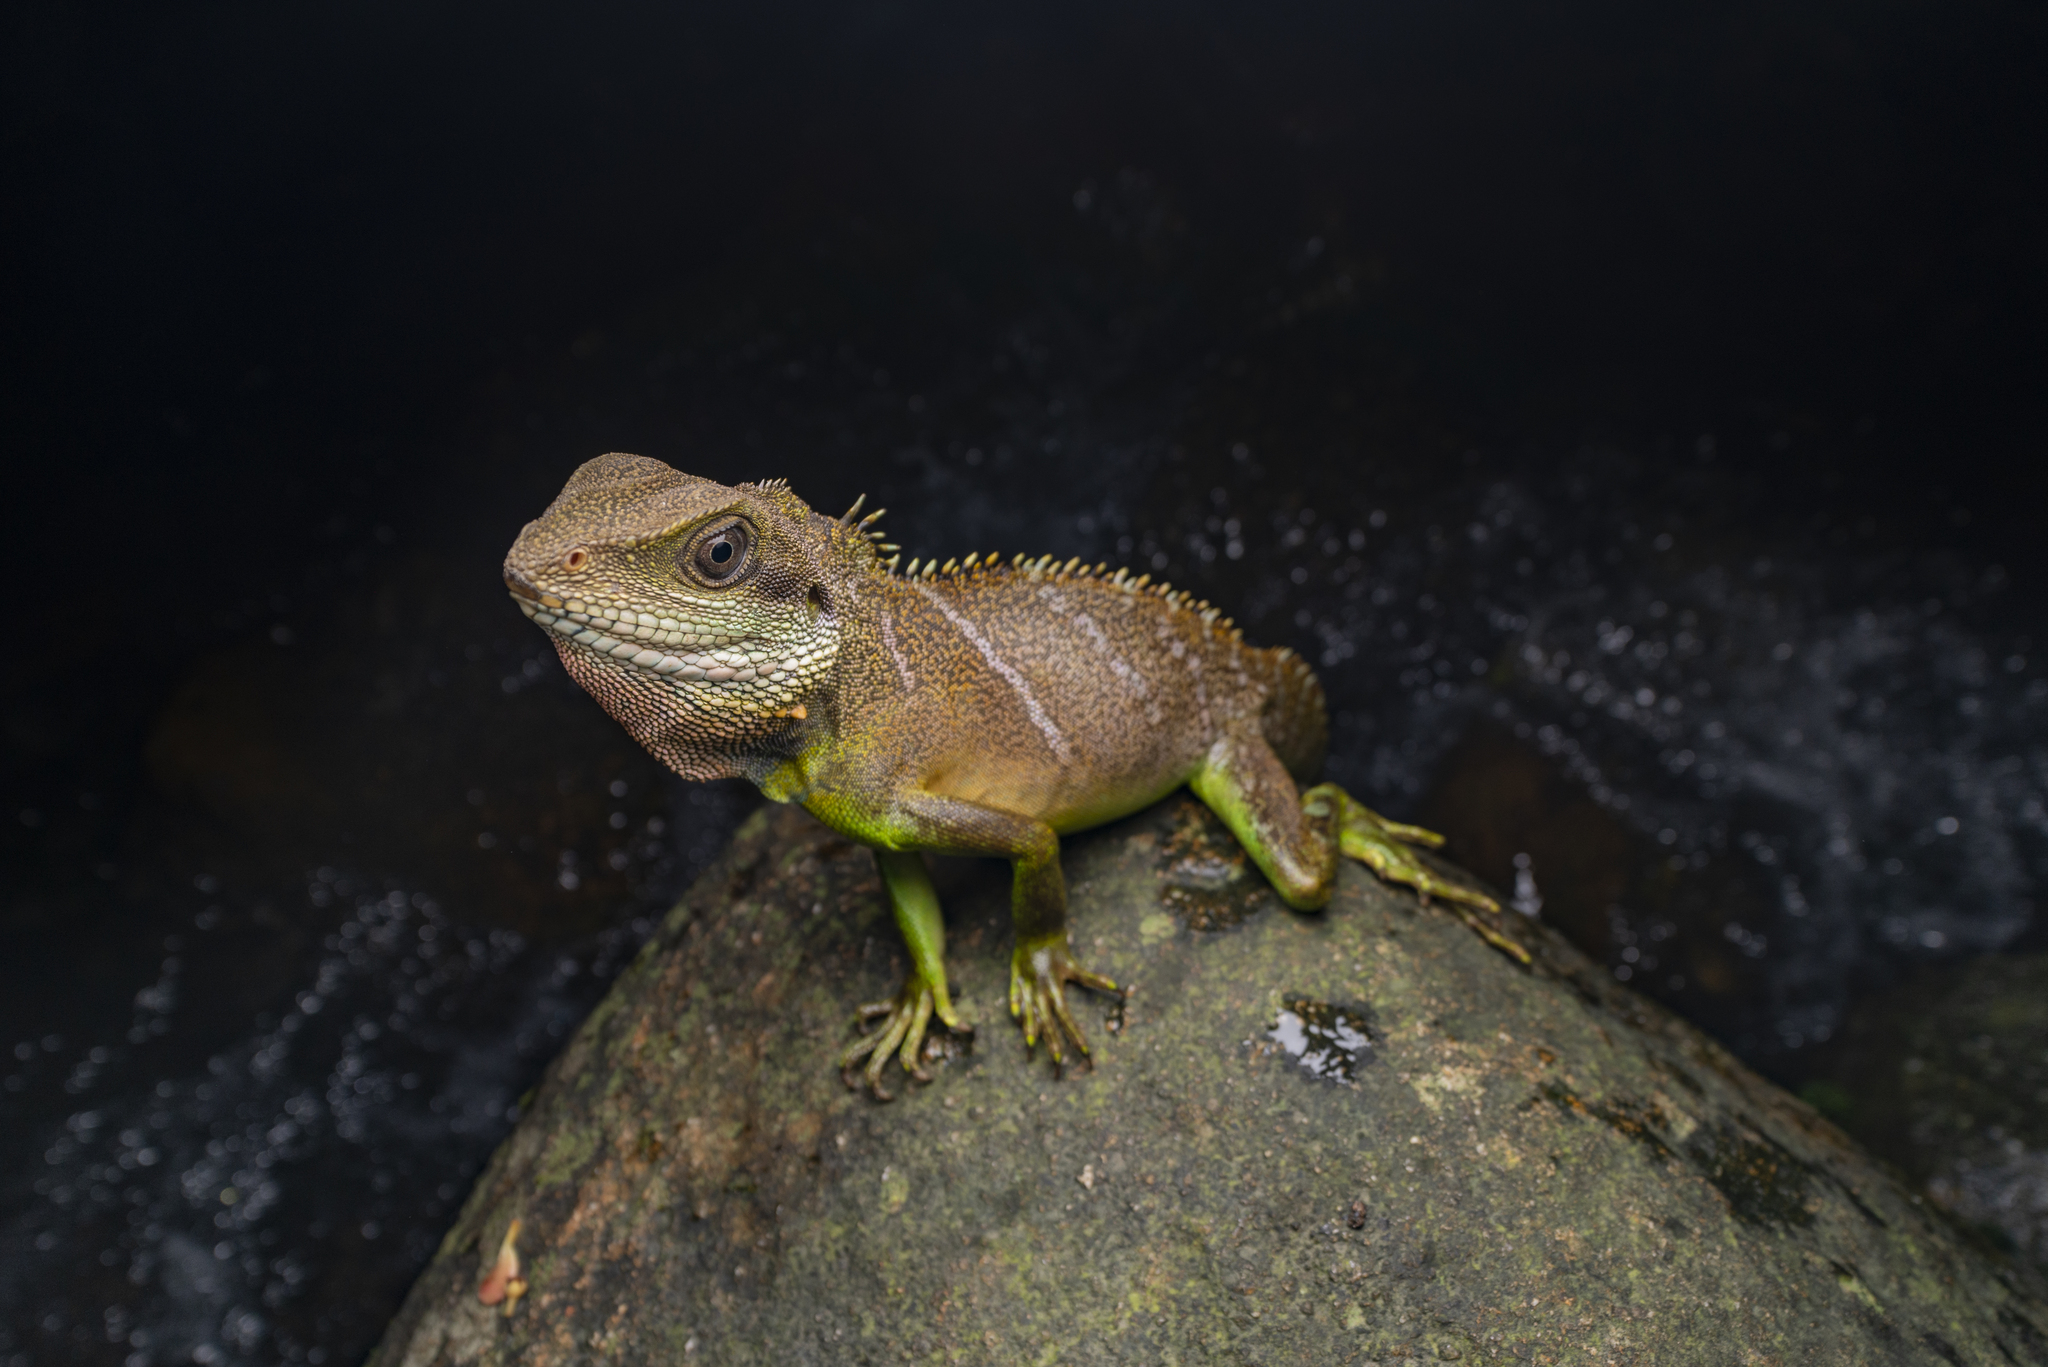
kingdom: Animalia
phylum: Chordata
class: Squamata
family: Agamidae
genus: Physignathus
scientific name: Physignathus cocincinus
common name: Asian water dragon
